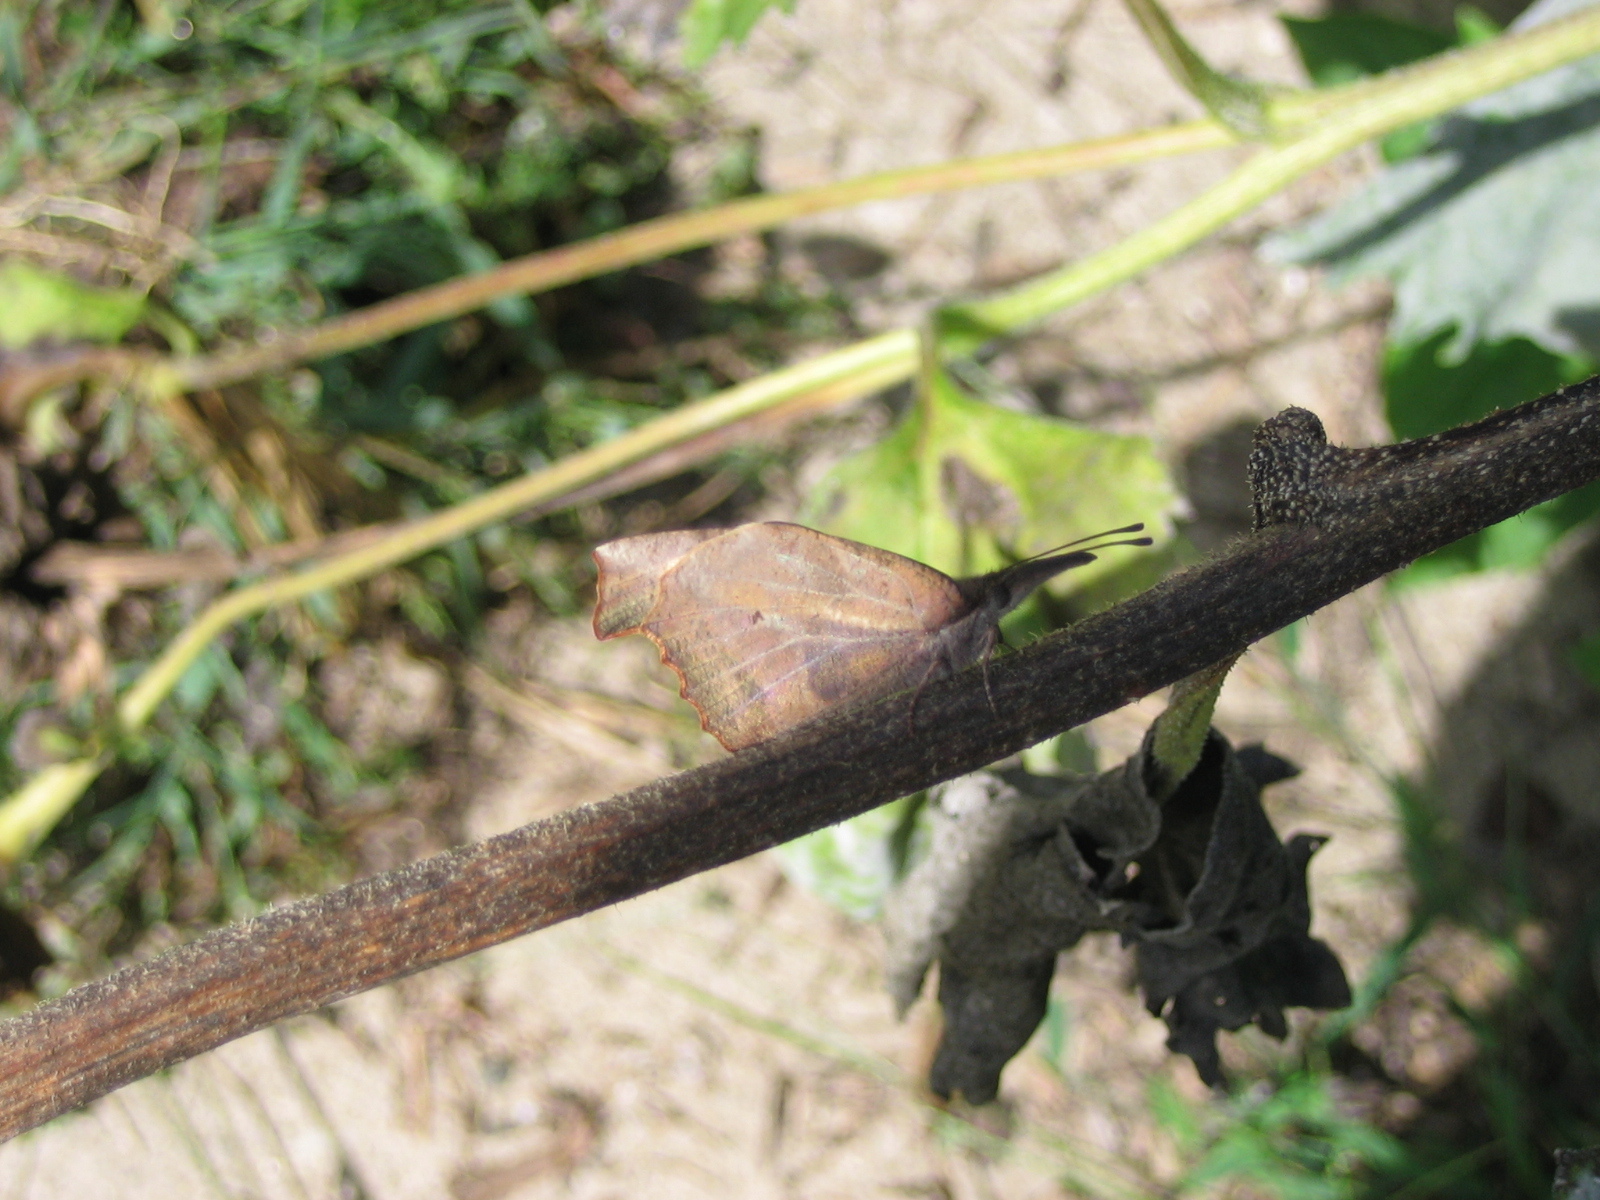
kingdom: Animalia
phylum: Arthropoda
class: Insecta
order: Lepidoptera
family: Nymphalidae
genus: Libytheana
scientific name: Libytheana carinenta
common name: American snout
